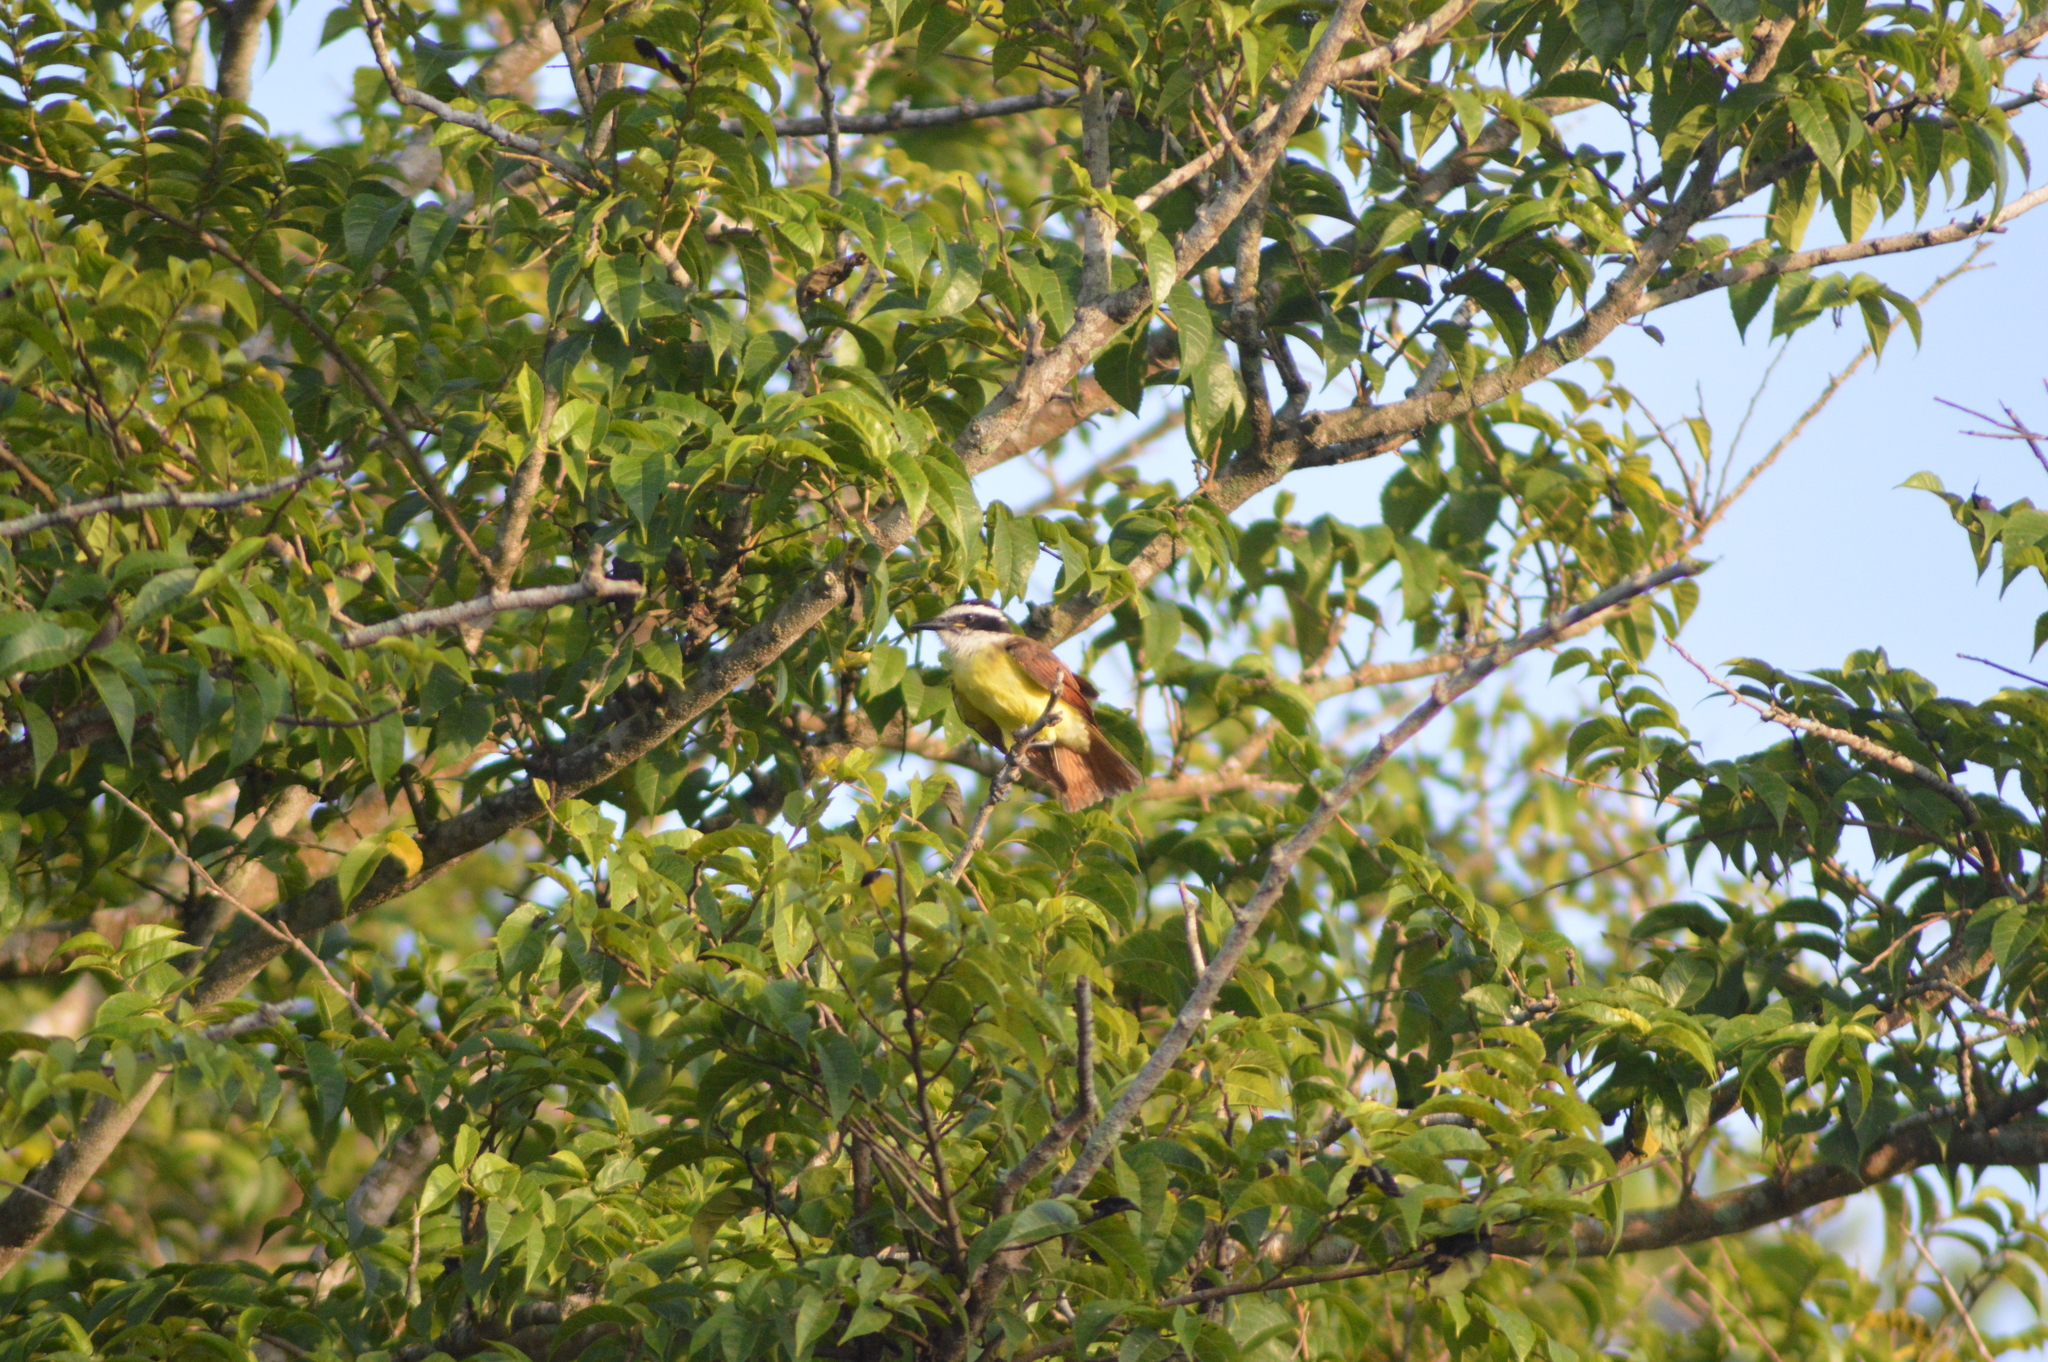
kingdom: Animalia
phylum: Chordata
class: Aves
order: Passeriformes
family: Tyrannidae
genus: Pitangus
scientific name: Pitangus sulphuratus
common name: Great kiskadee
